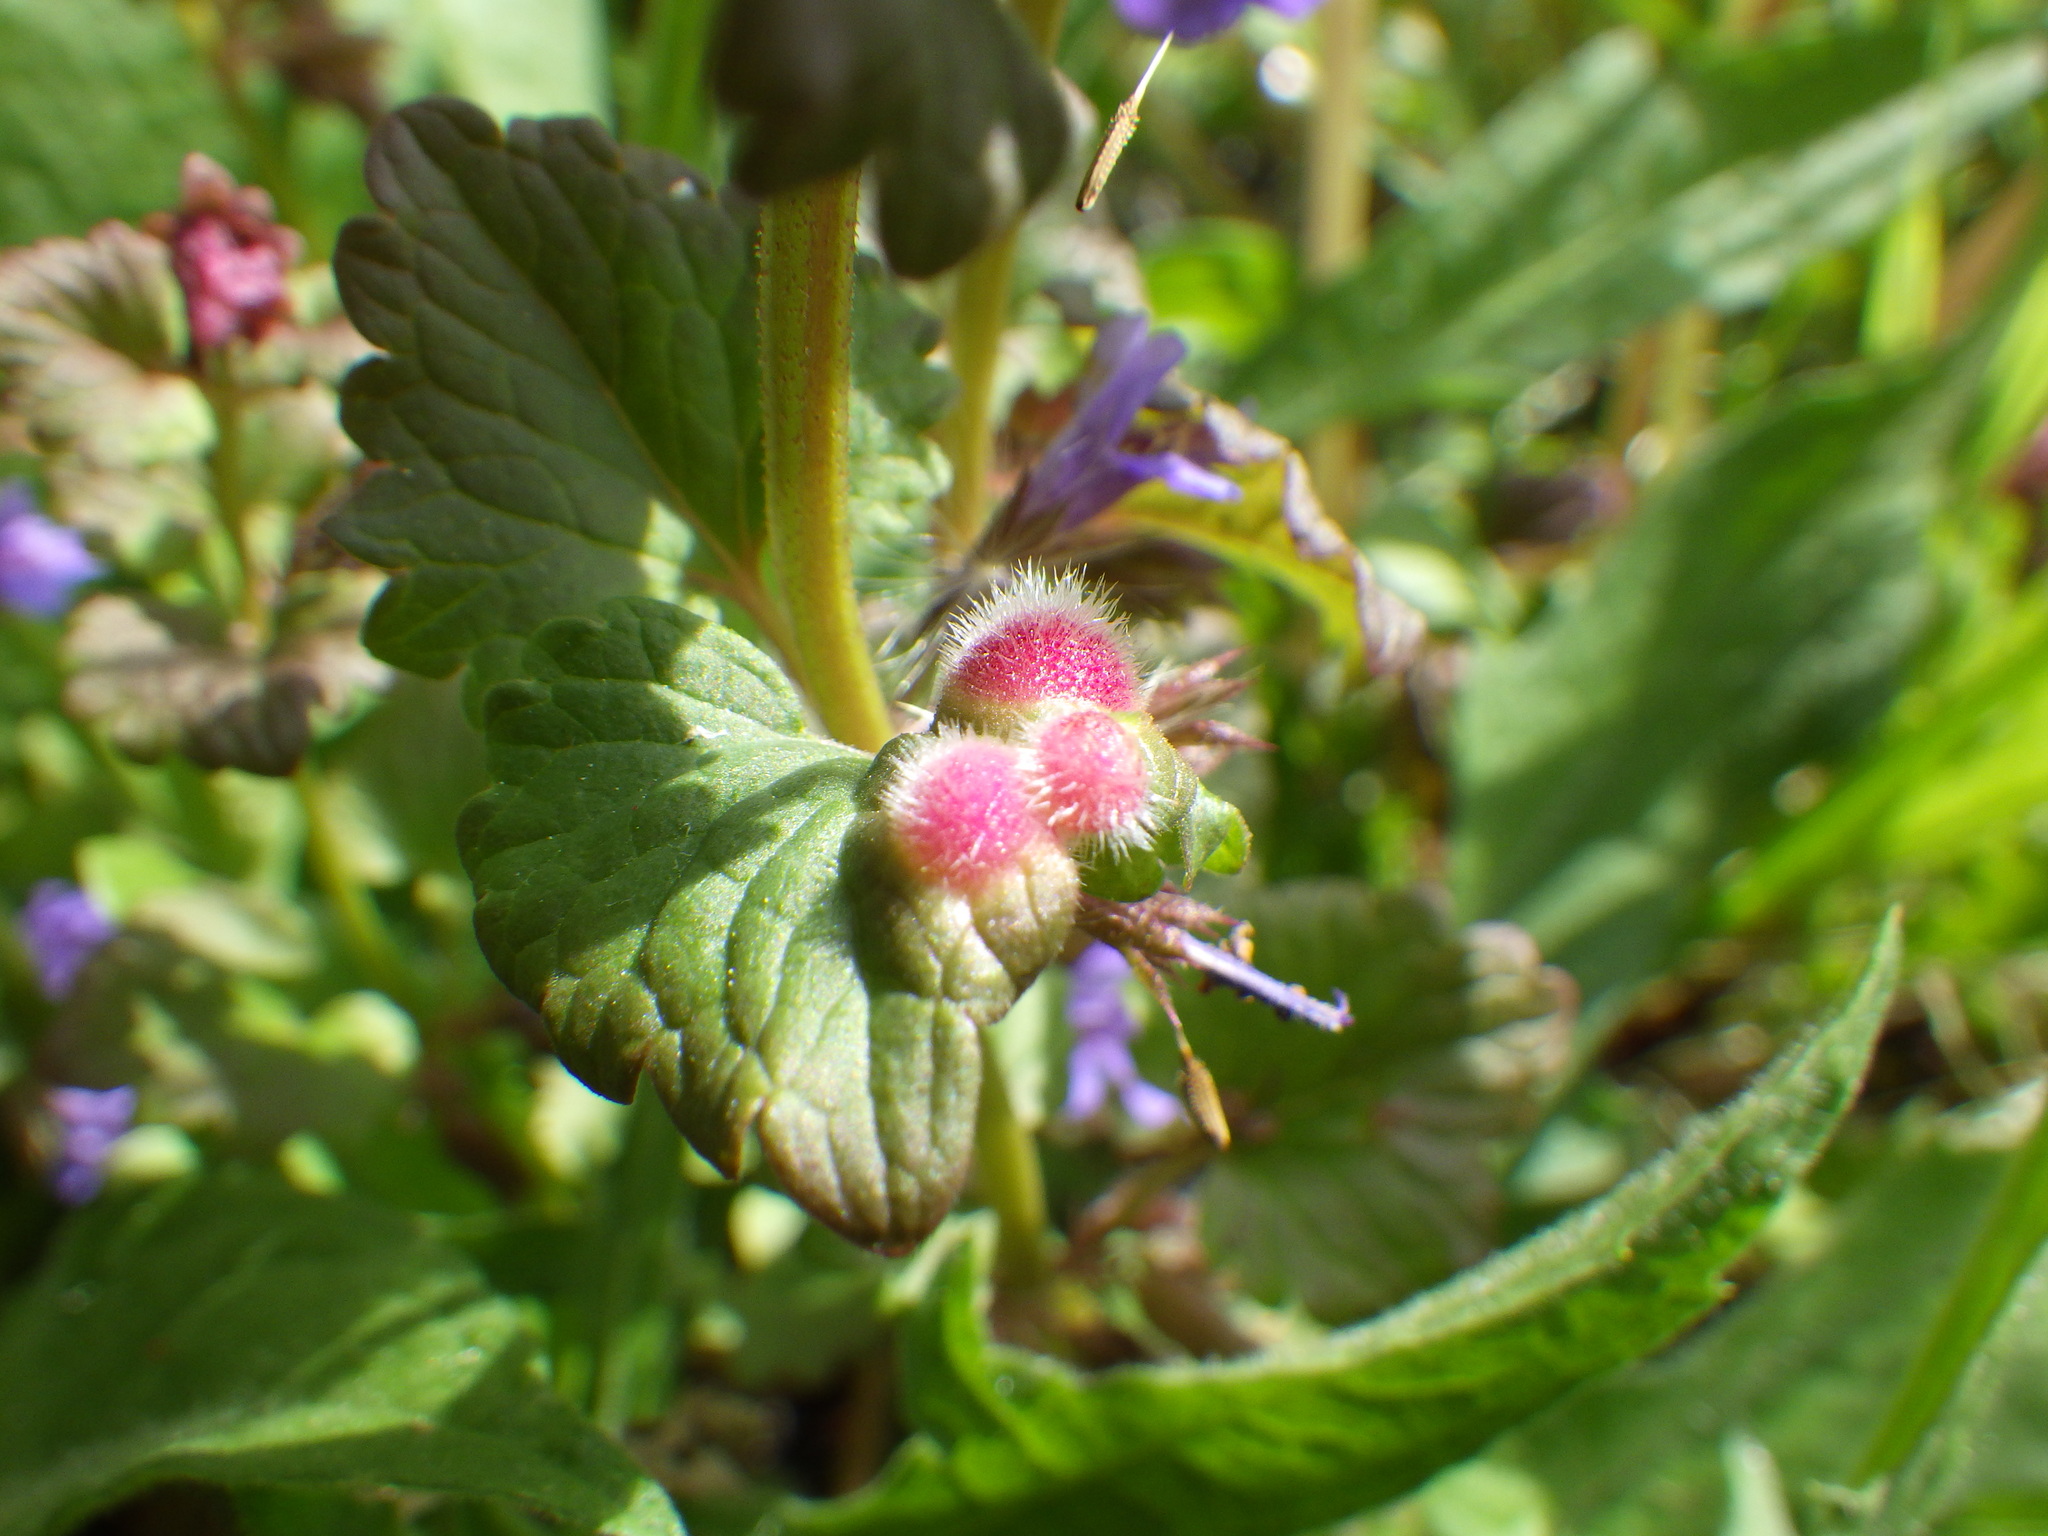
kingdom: Animalia
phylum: Arthropoda
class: Insecta
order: Hymenoptera
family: Cynipidae
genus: Liposthenes
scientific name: Liposthenes glechomae
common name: Gall wasp
